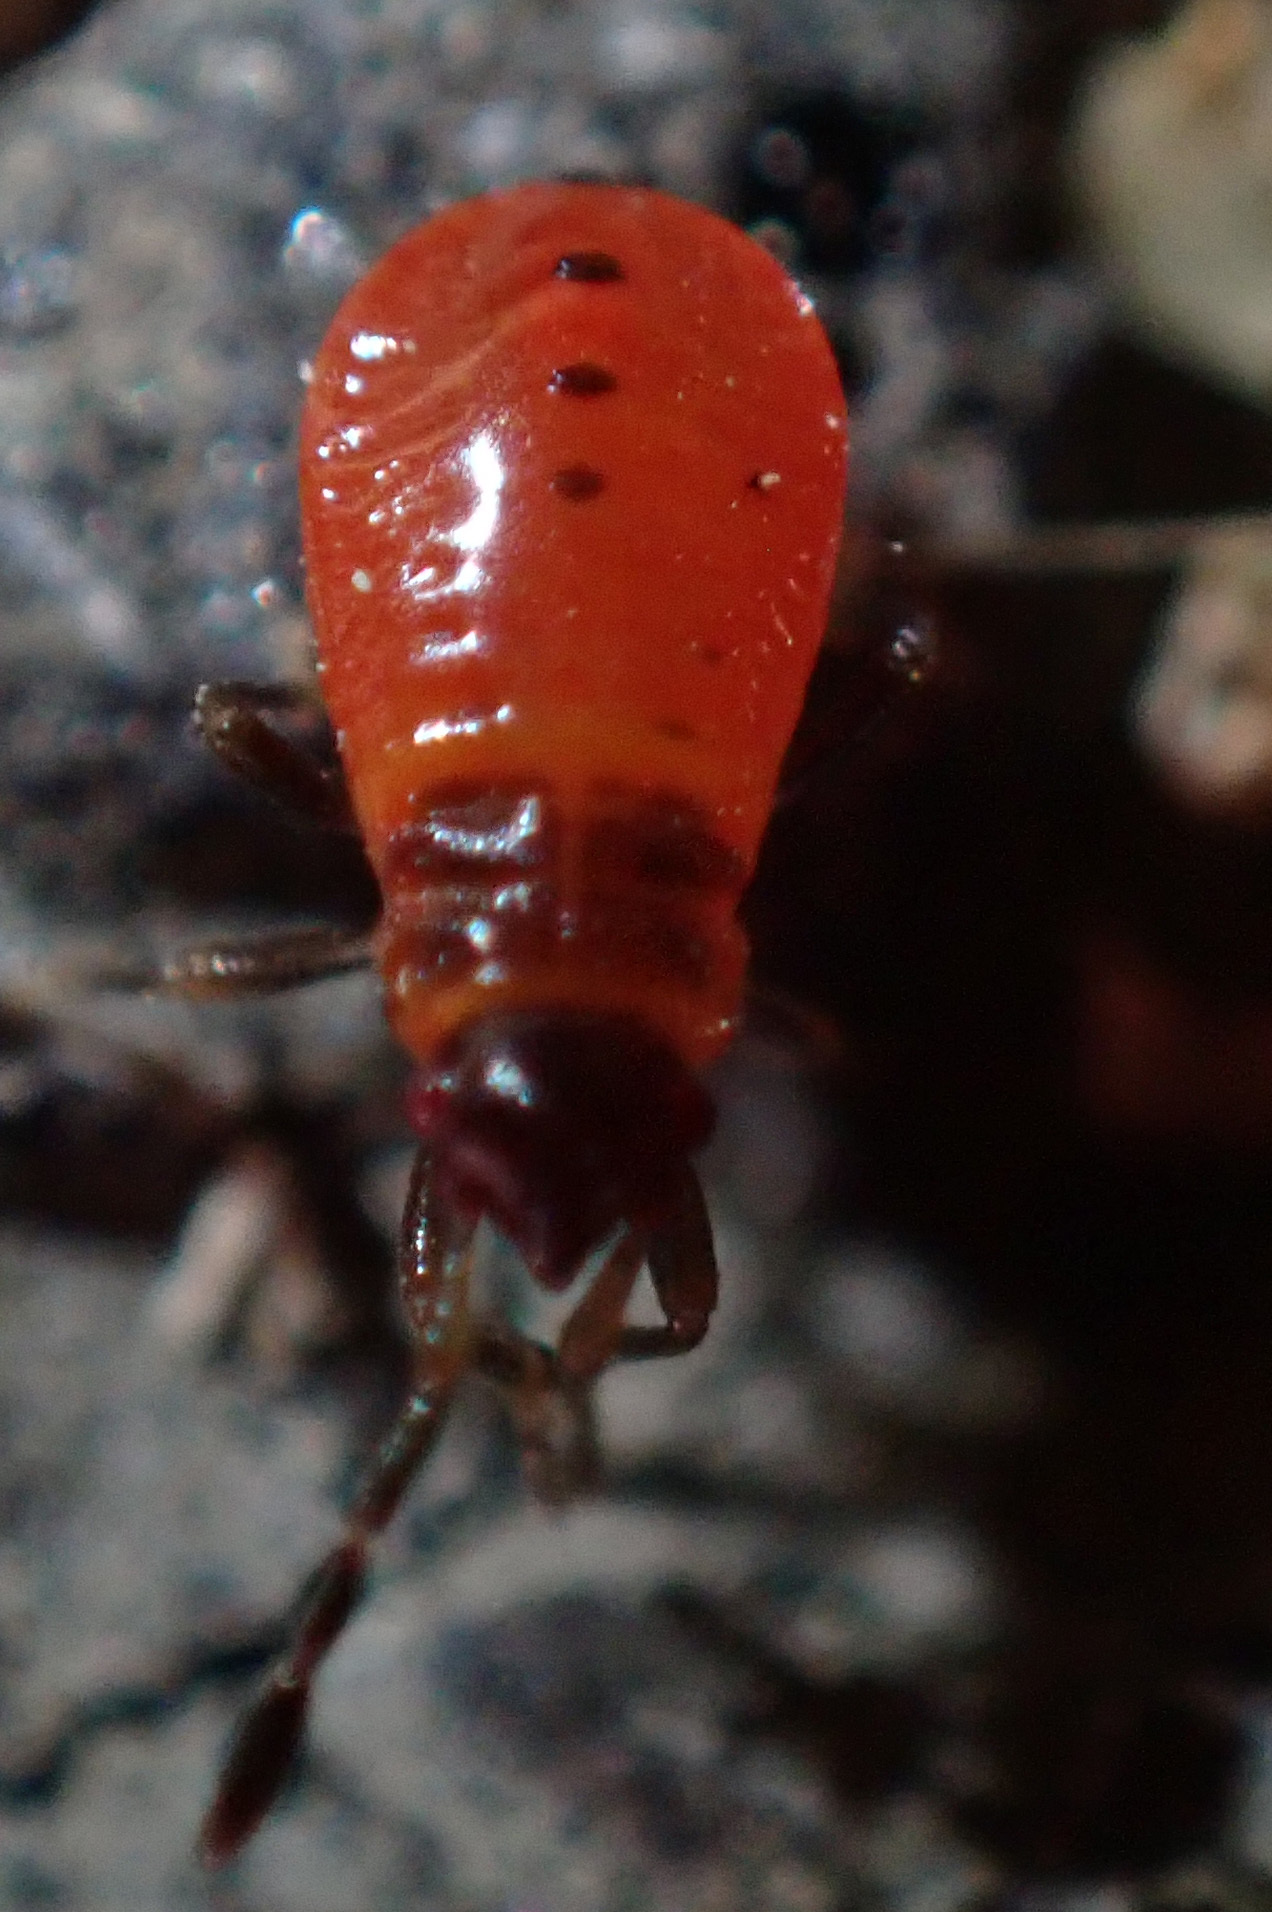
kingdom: Animalia
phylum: Arthropoda
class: Insecta
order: Hemiptera
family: Pyrrhocoridae
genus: Pyrrhocoris
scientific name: Pyrrhocoris apterus
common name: Firebug
